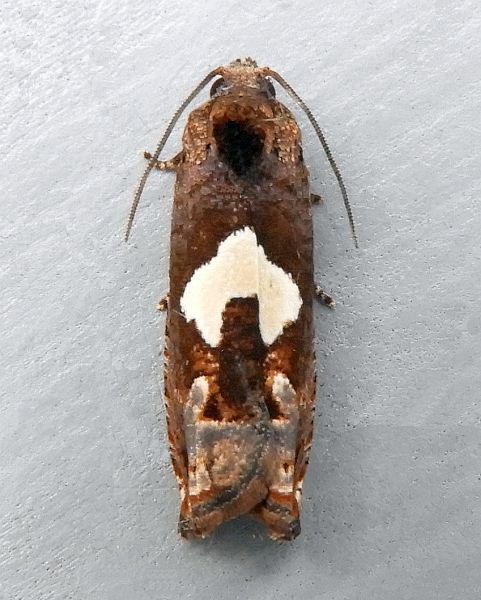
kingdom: Animalia
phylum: Arthropoda
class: Insecta
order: Lepidoptera
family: Tortricidae
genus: Epiblema
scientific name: Epiblema otiosana
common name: Bidens borer moth
